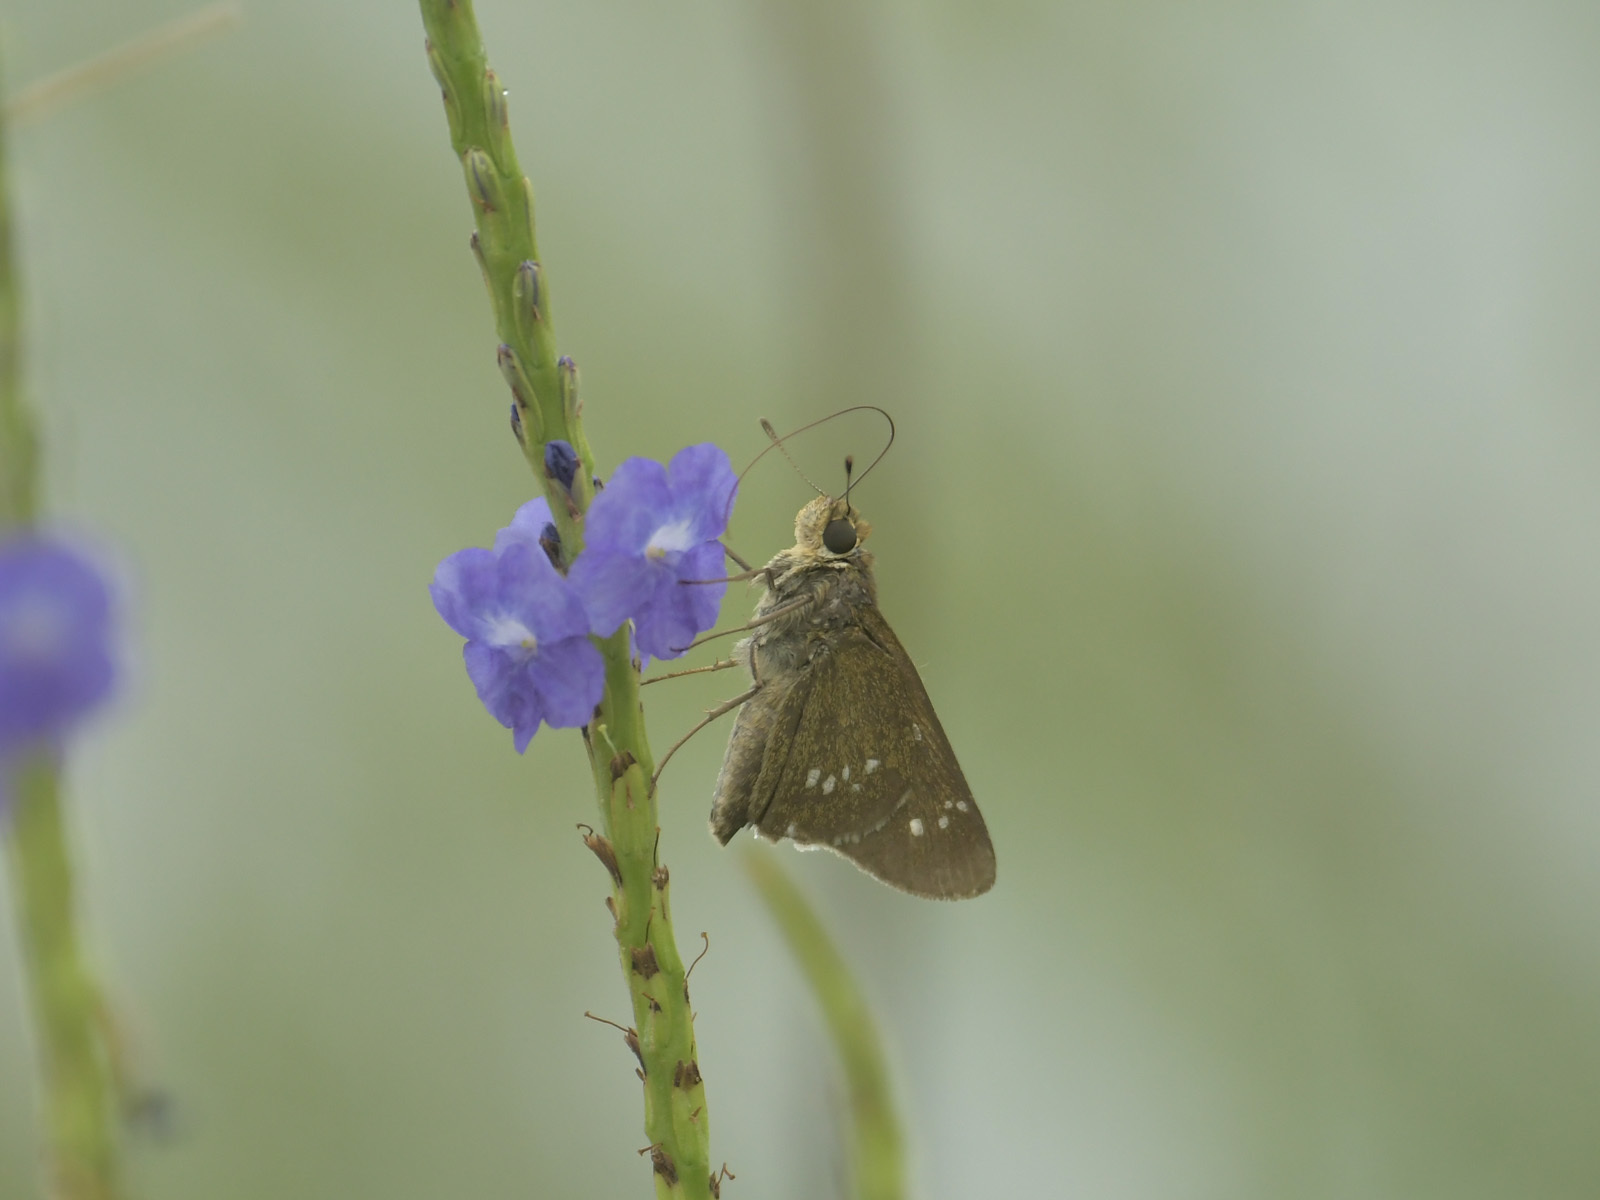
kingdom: Animalia
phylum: Arthropoda
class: Insecta
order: Lepidoptera
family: Hesperiidae
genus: Borbo
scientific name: Borbo cinnara
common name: Formosan swift
